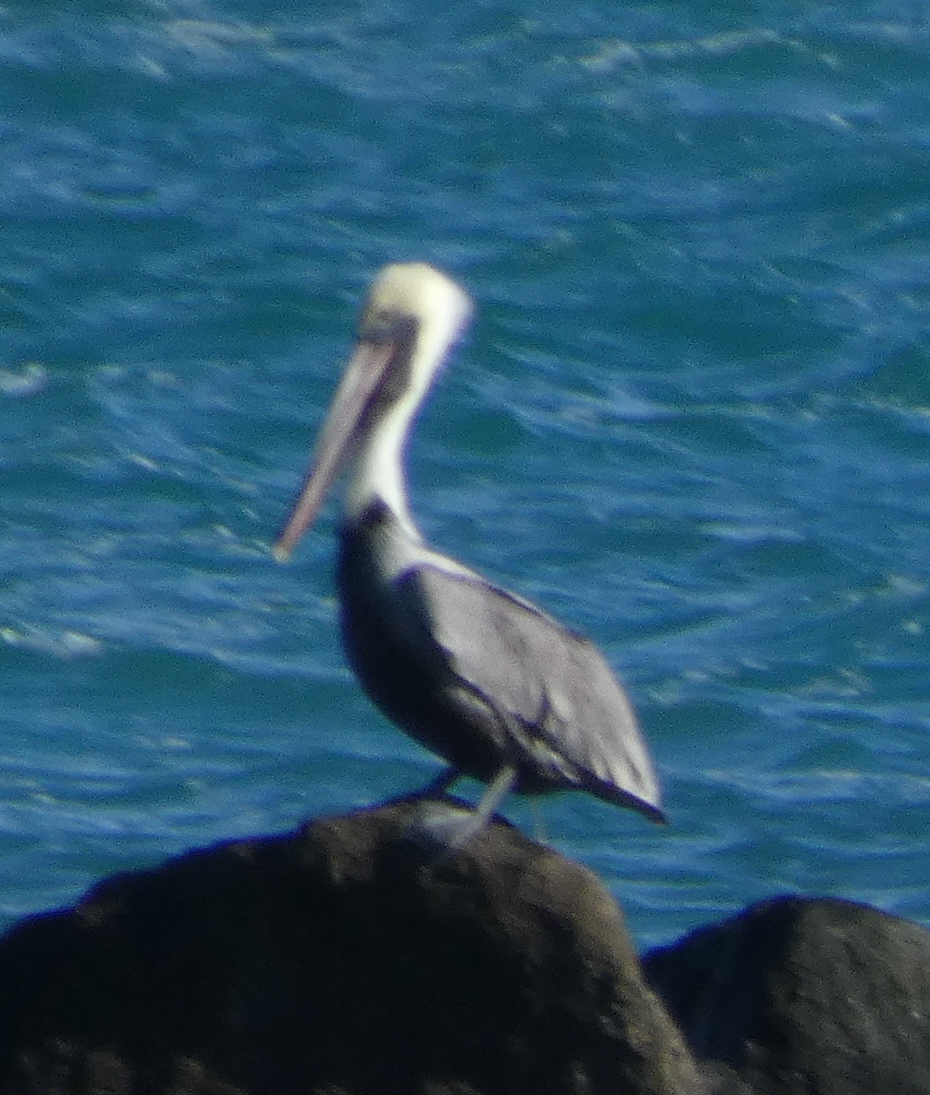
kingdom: Animalia
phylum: Chordata
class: Aves
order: Pelecaniformes
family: Pelecanidae
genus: Pelecanus
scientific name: Pelecanus occidentalis
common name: Brown pelican
